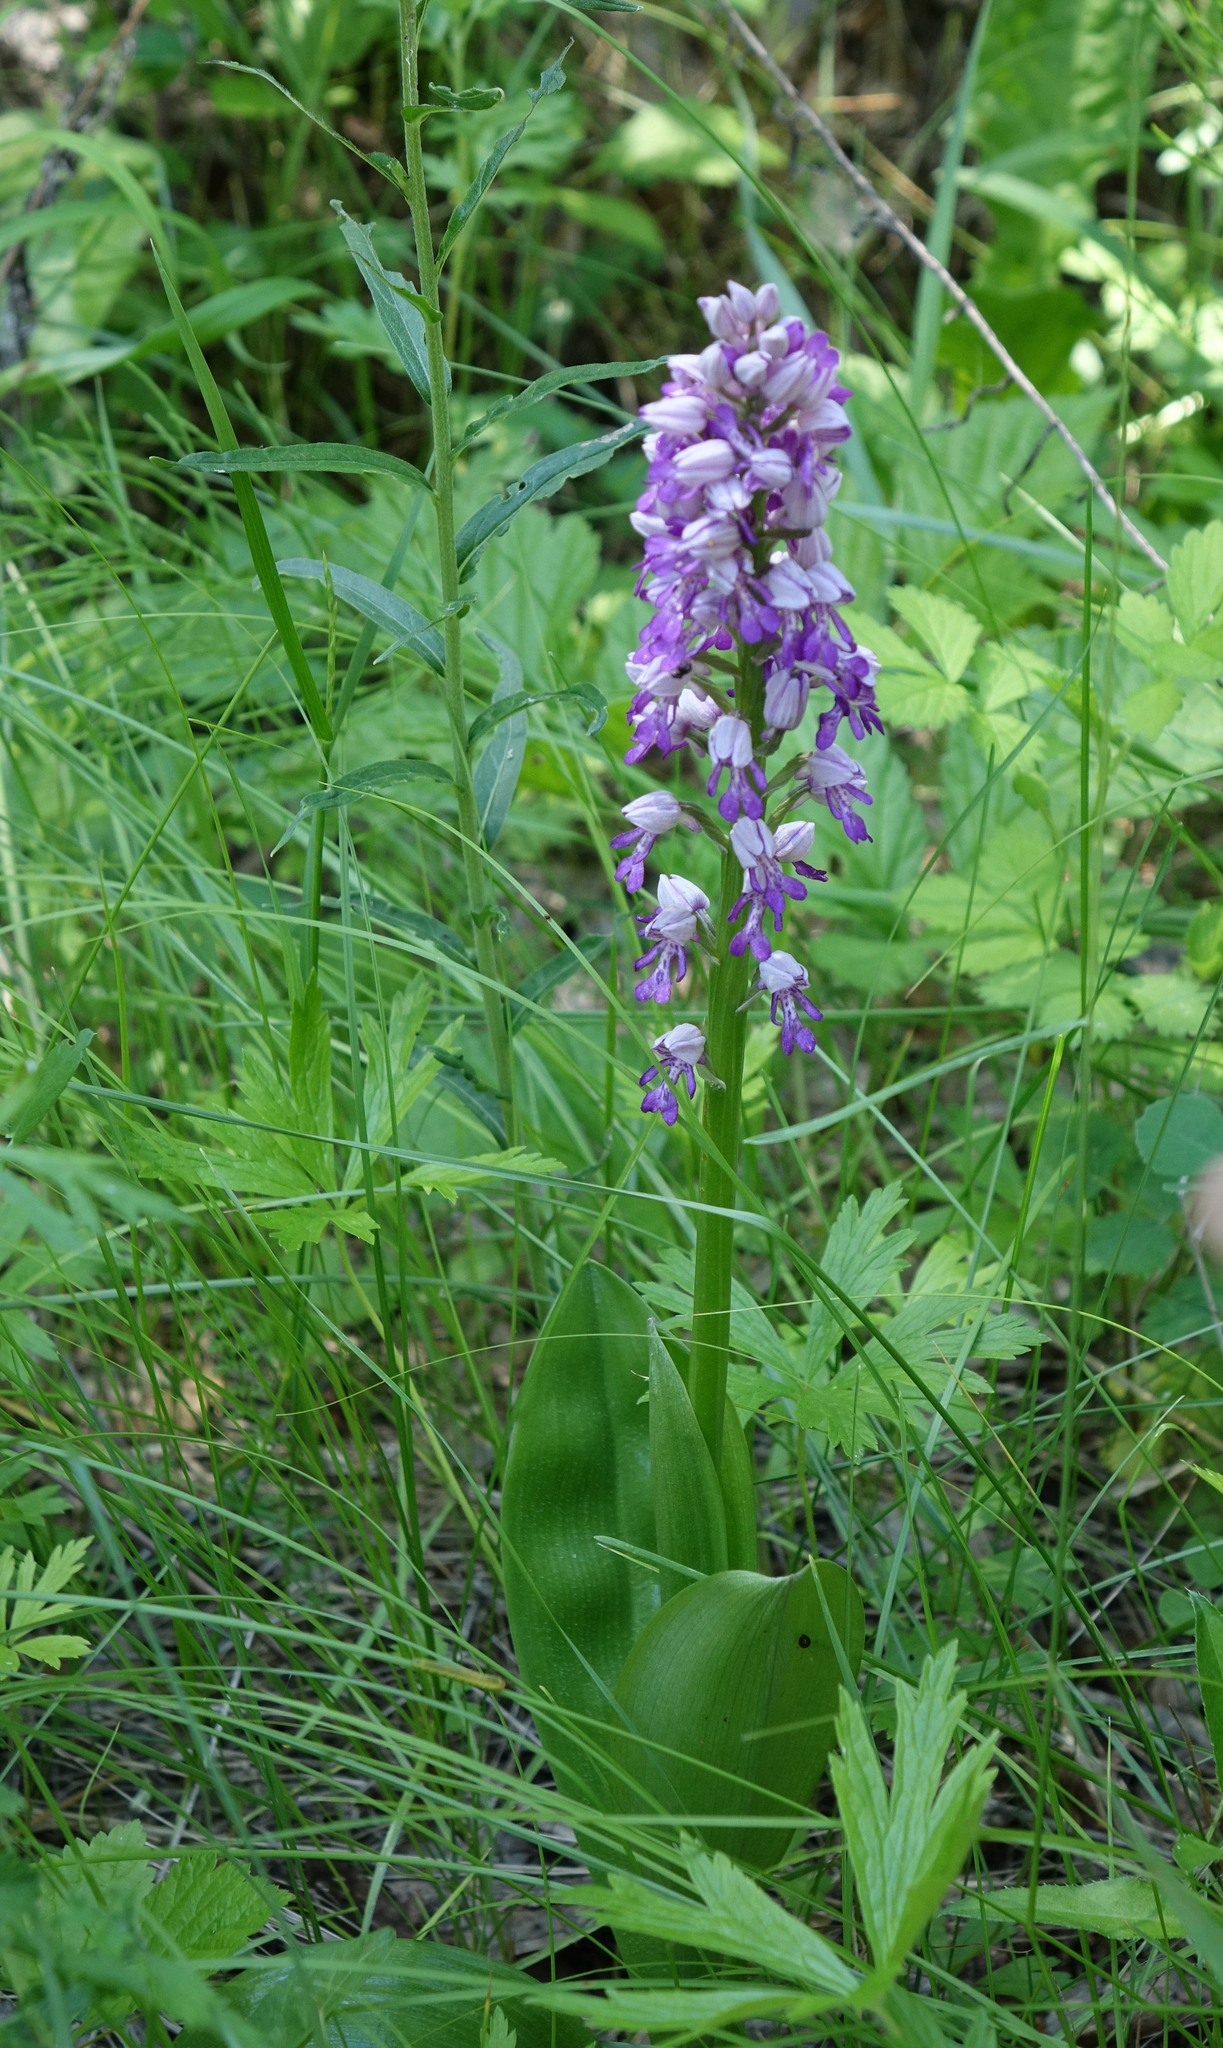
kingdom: Plantae
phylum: Tracheophyta
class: Liliopsida
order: Asparagales
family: Orchidaceae
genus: Orchis
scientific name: Orchis militaris
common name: Military orchid
